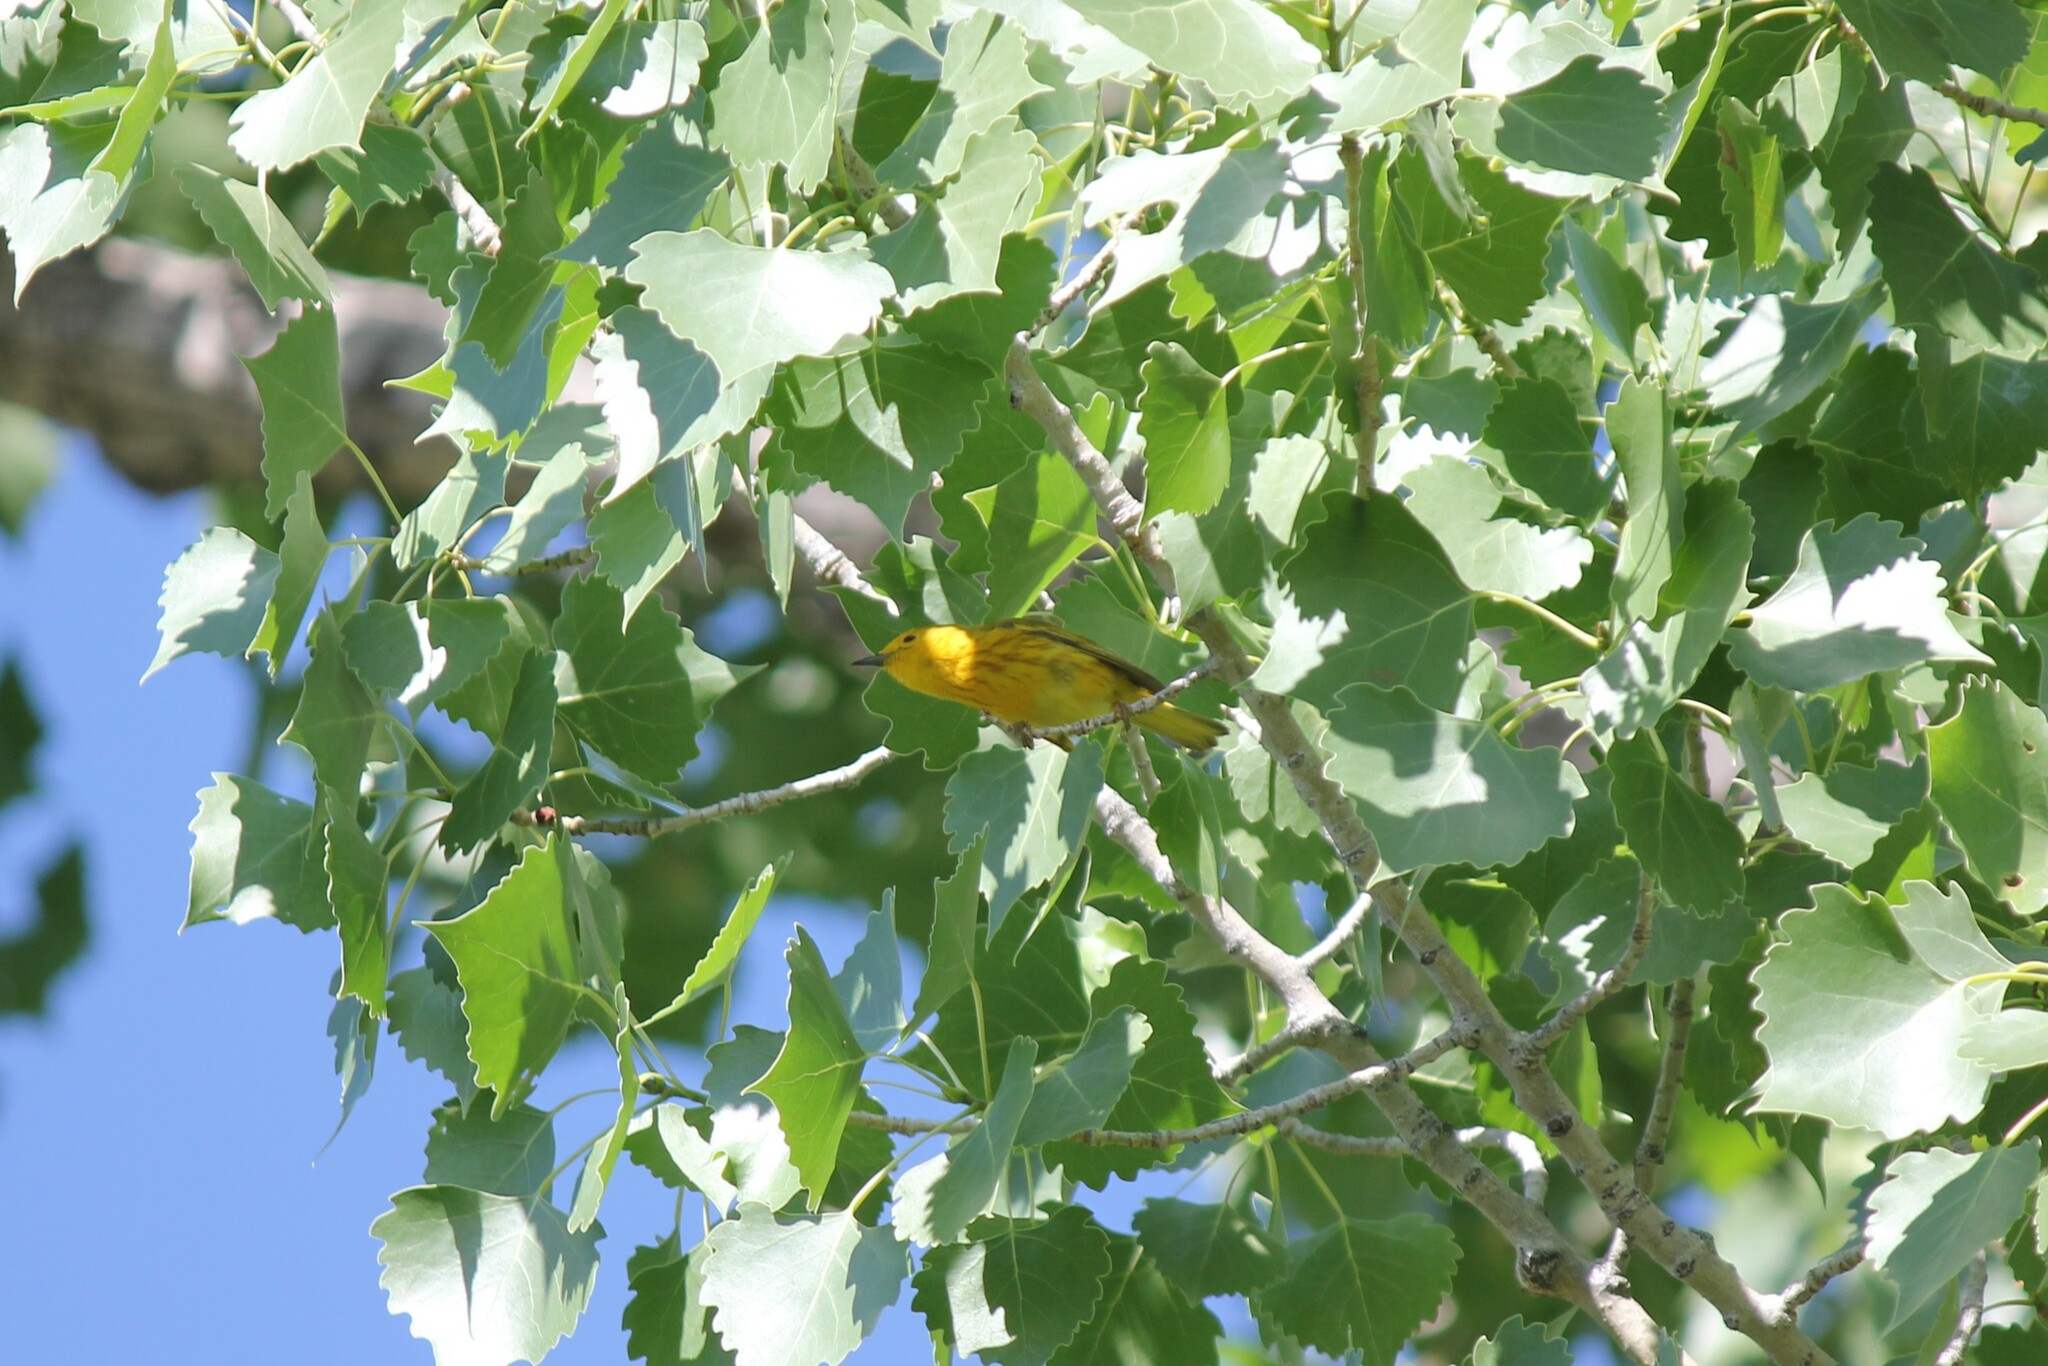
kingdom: Animalia
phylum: Chordata
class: Aves
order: Passeriformes
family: Parulidae
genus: Setophaga
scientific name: Setophaga petechia
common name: Yellow warbler
